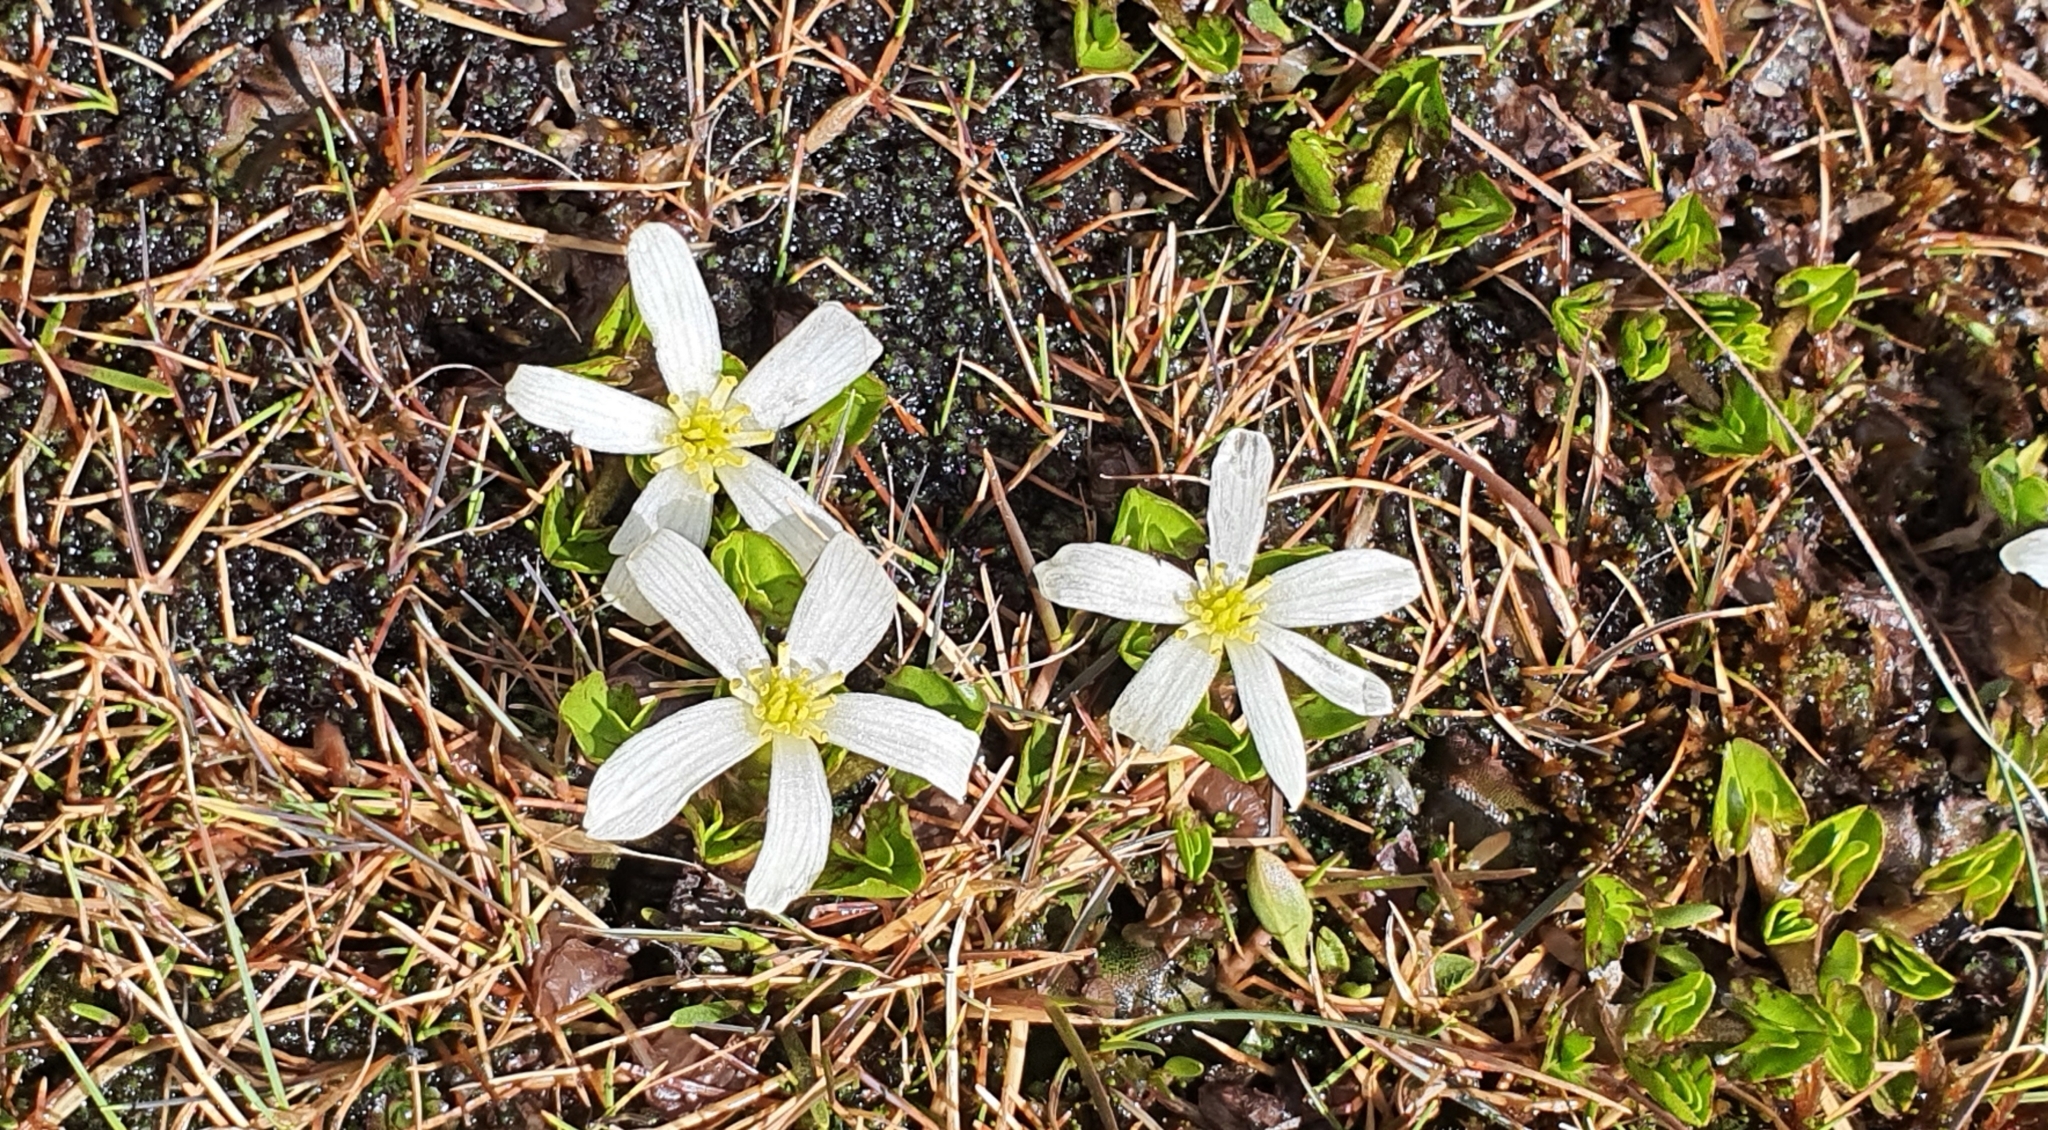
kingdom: Plantae
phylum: Tracheophyta
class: Magnoliopsida
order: Ranunculales
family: Ranunculaceae
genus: Caltha
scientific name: Caltha obtusa
